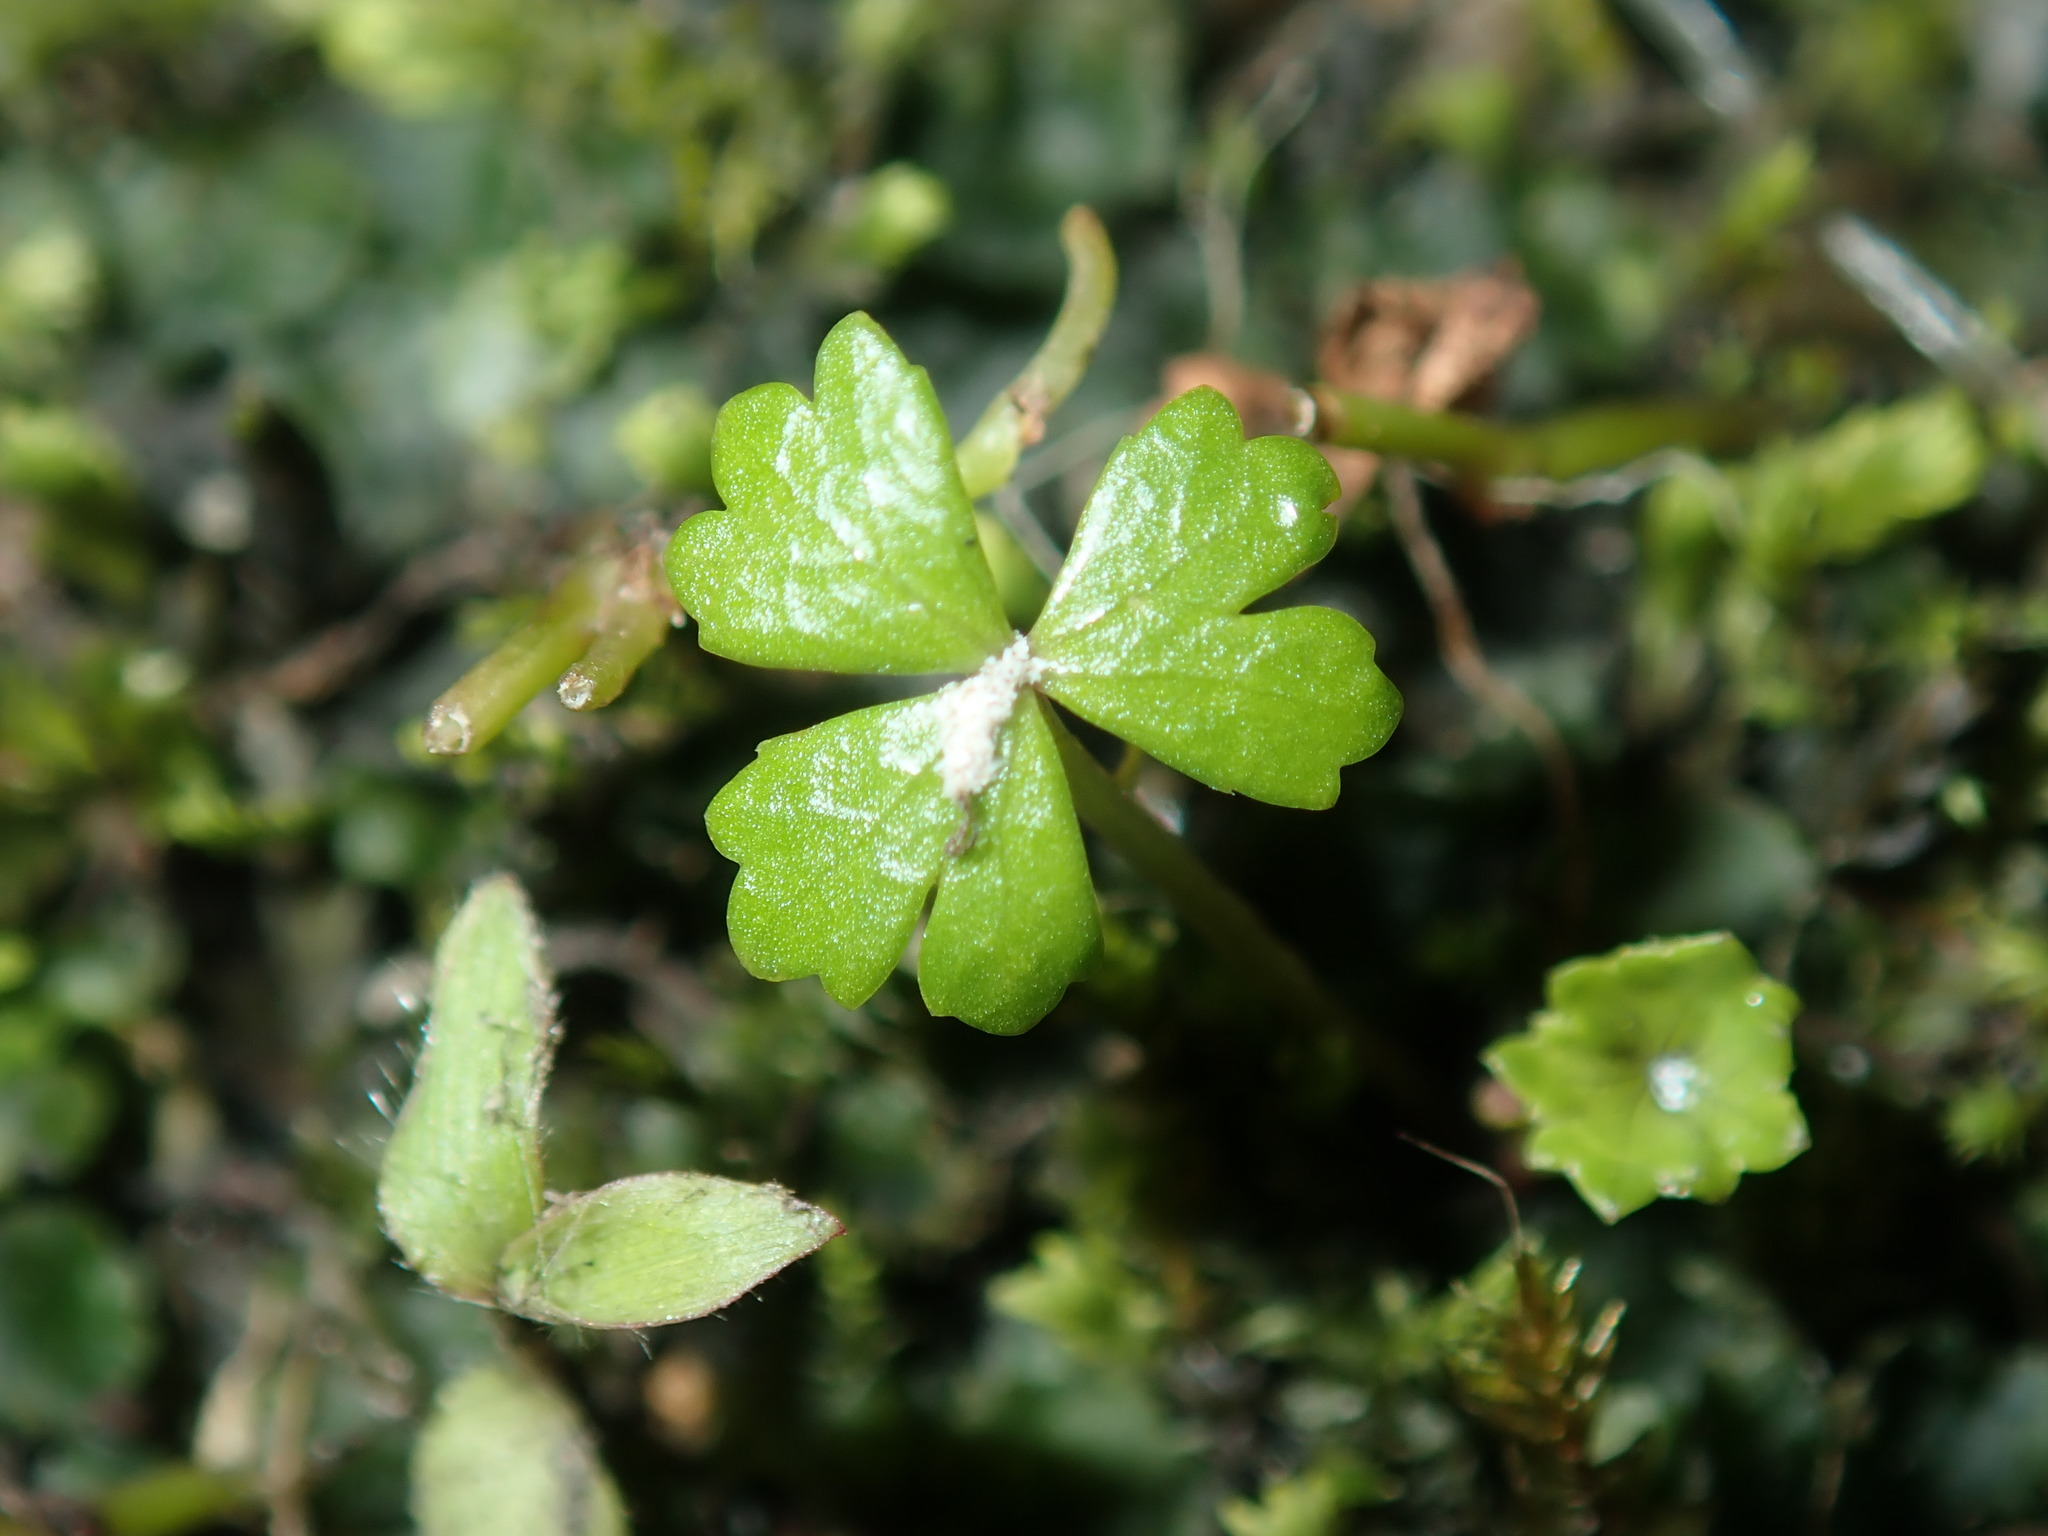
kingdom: Plantae
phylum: Tracheophyta
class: Magnoliopsida
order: Apiales
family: Araliaceae
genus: Hydrocotyle
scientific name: Hydrocotyle tripartita
